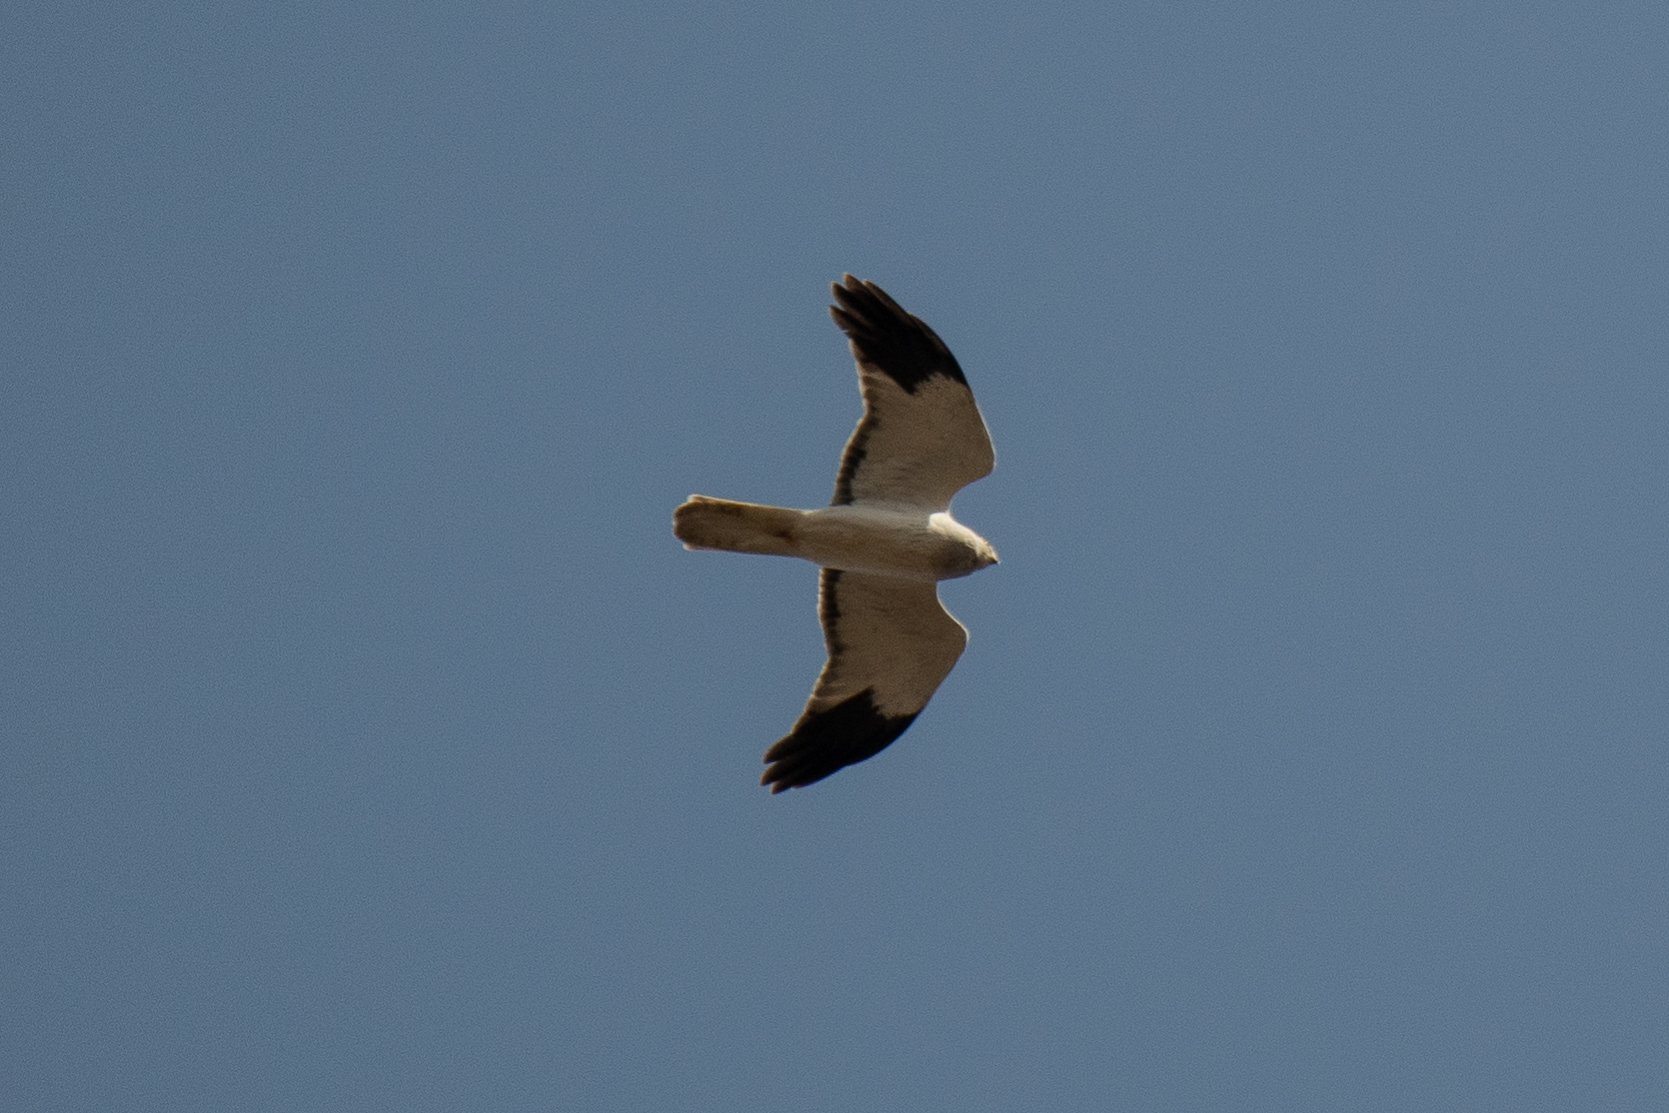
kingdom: Animalia
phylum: Chordata
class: Aves
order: Accipitriformes
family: Accipitridae
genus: Circus
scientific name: Circus cyaneus
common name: Hen harrier
